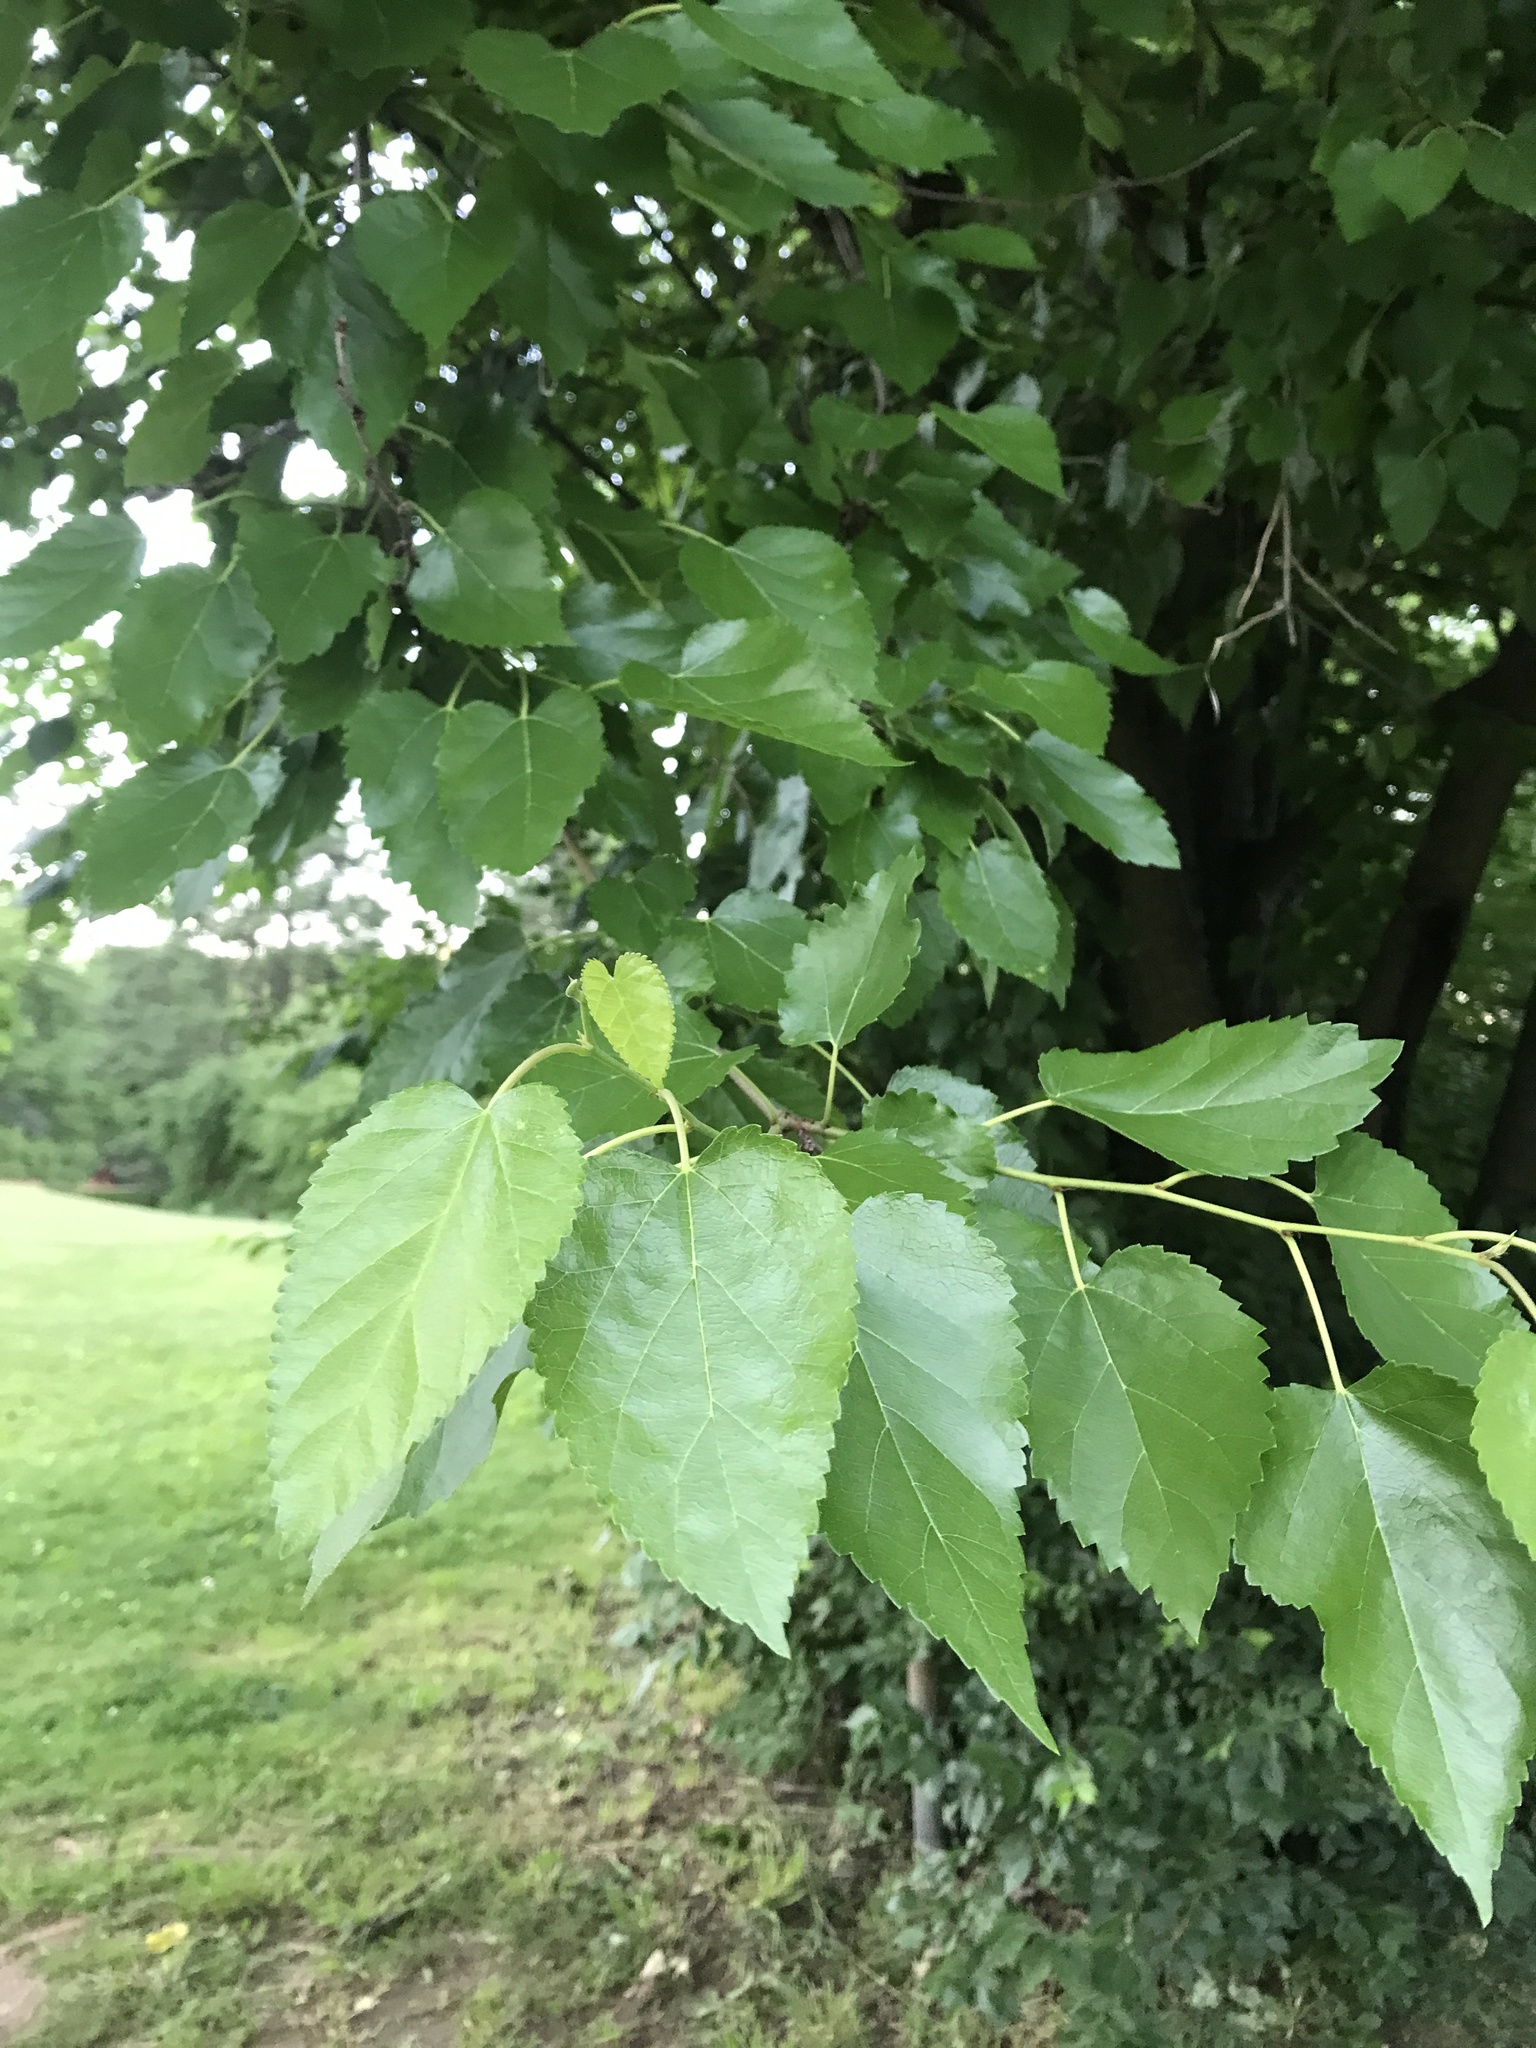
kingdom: Plantae
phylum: Tracheophyta
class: Magnoliopsida
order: Rosales
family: Moraceae
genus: Morus
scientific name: Morus alba
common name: White mulberry
